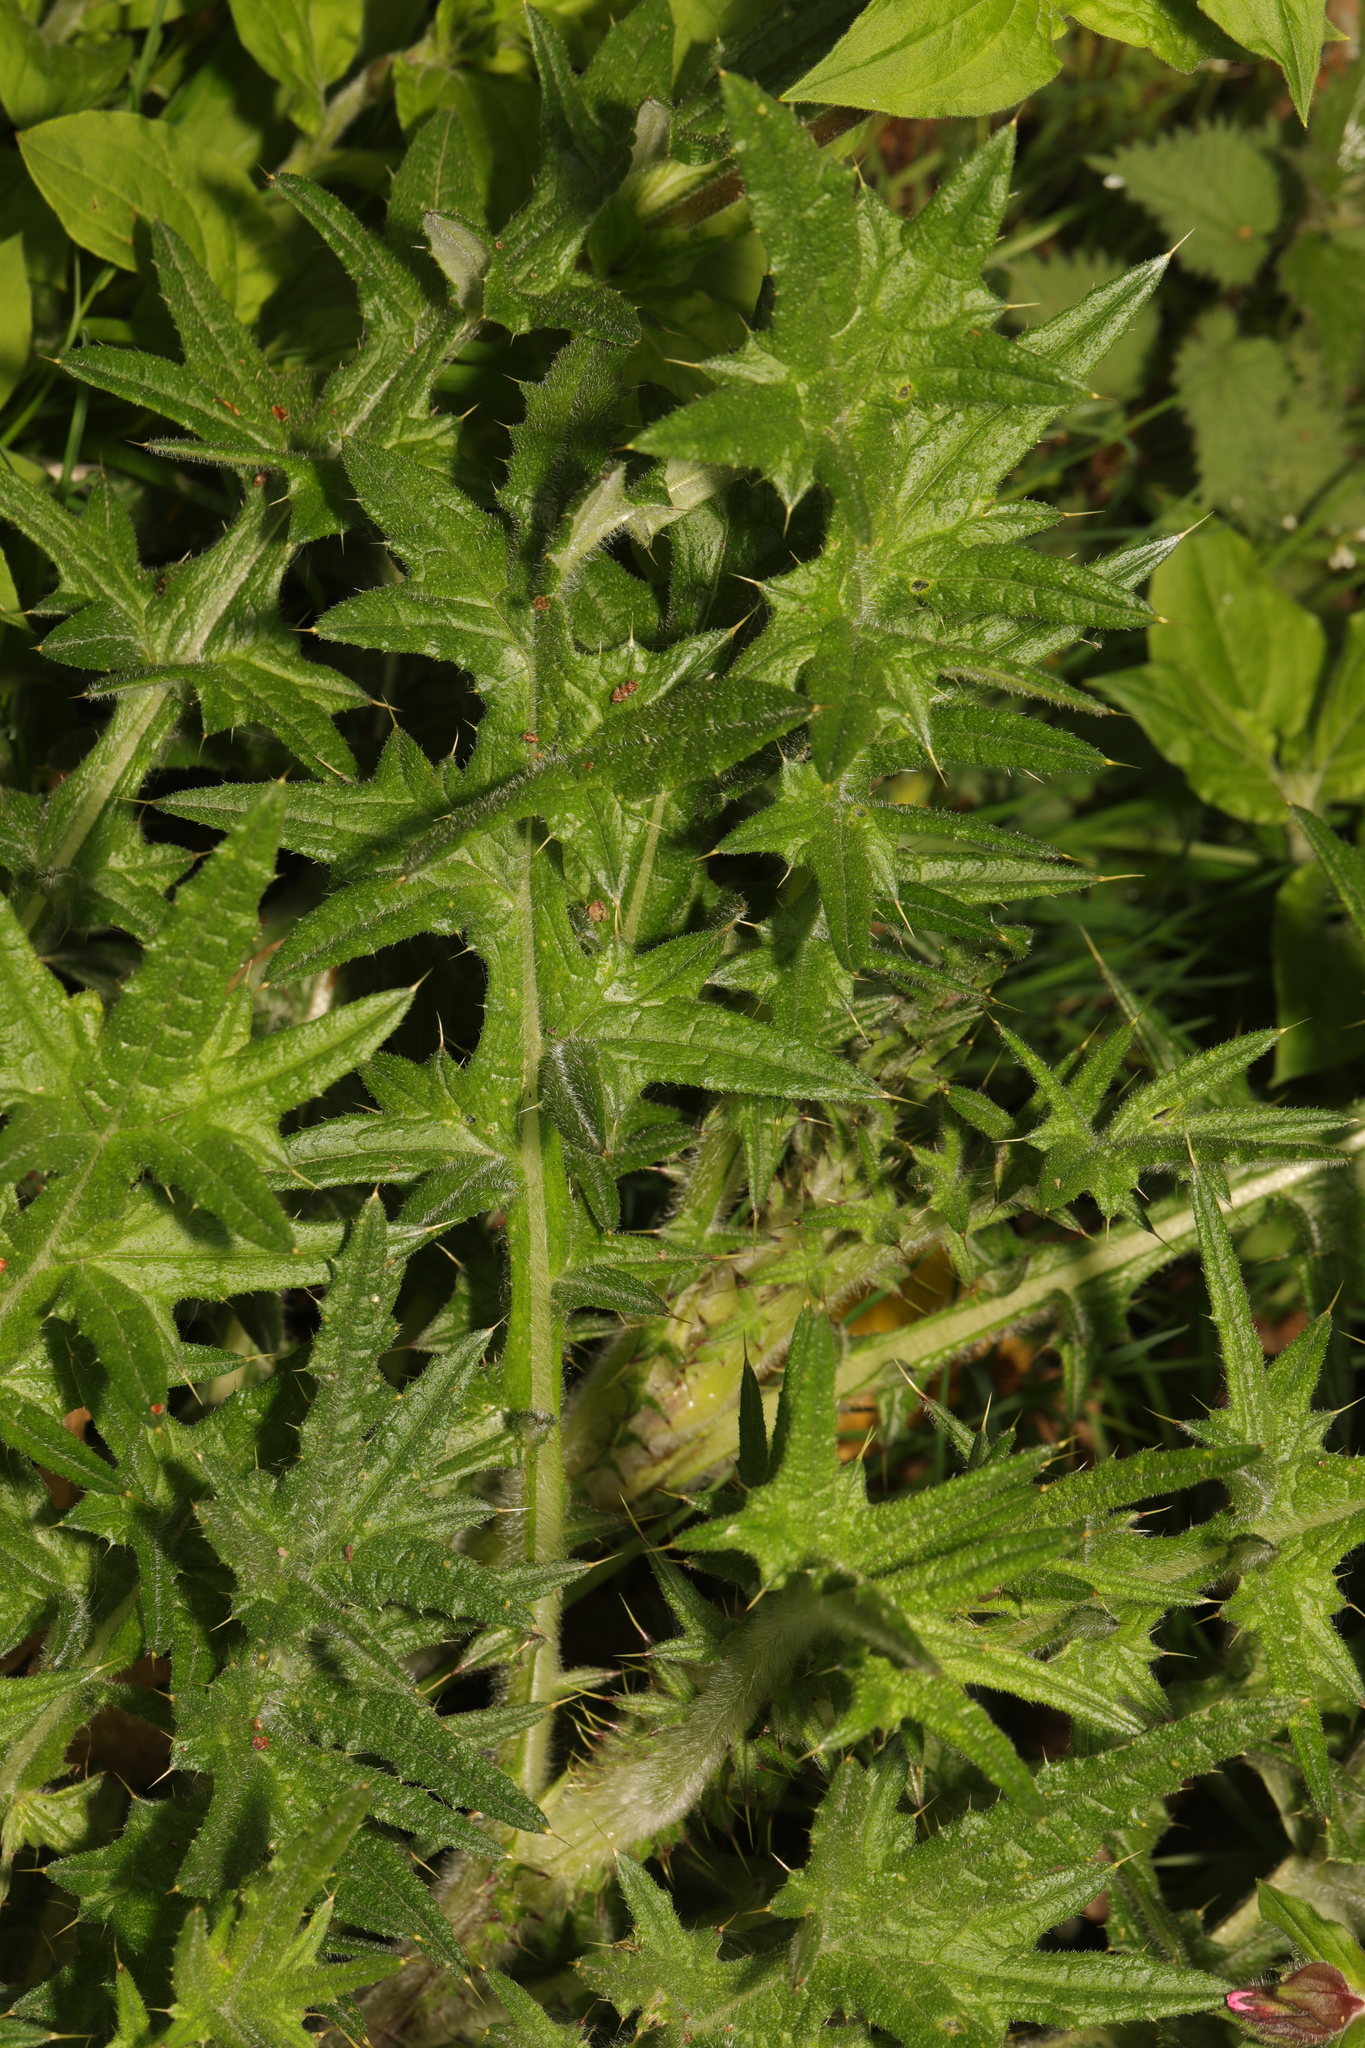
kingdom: Plantae
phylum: Tracheophyta
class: Magnoliopsida
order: Asterales
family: Asteraceae
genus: Cirsium
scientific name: Cirsium vulgare
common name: Bull thistle
